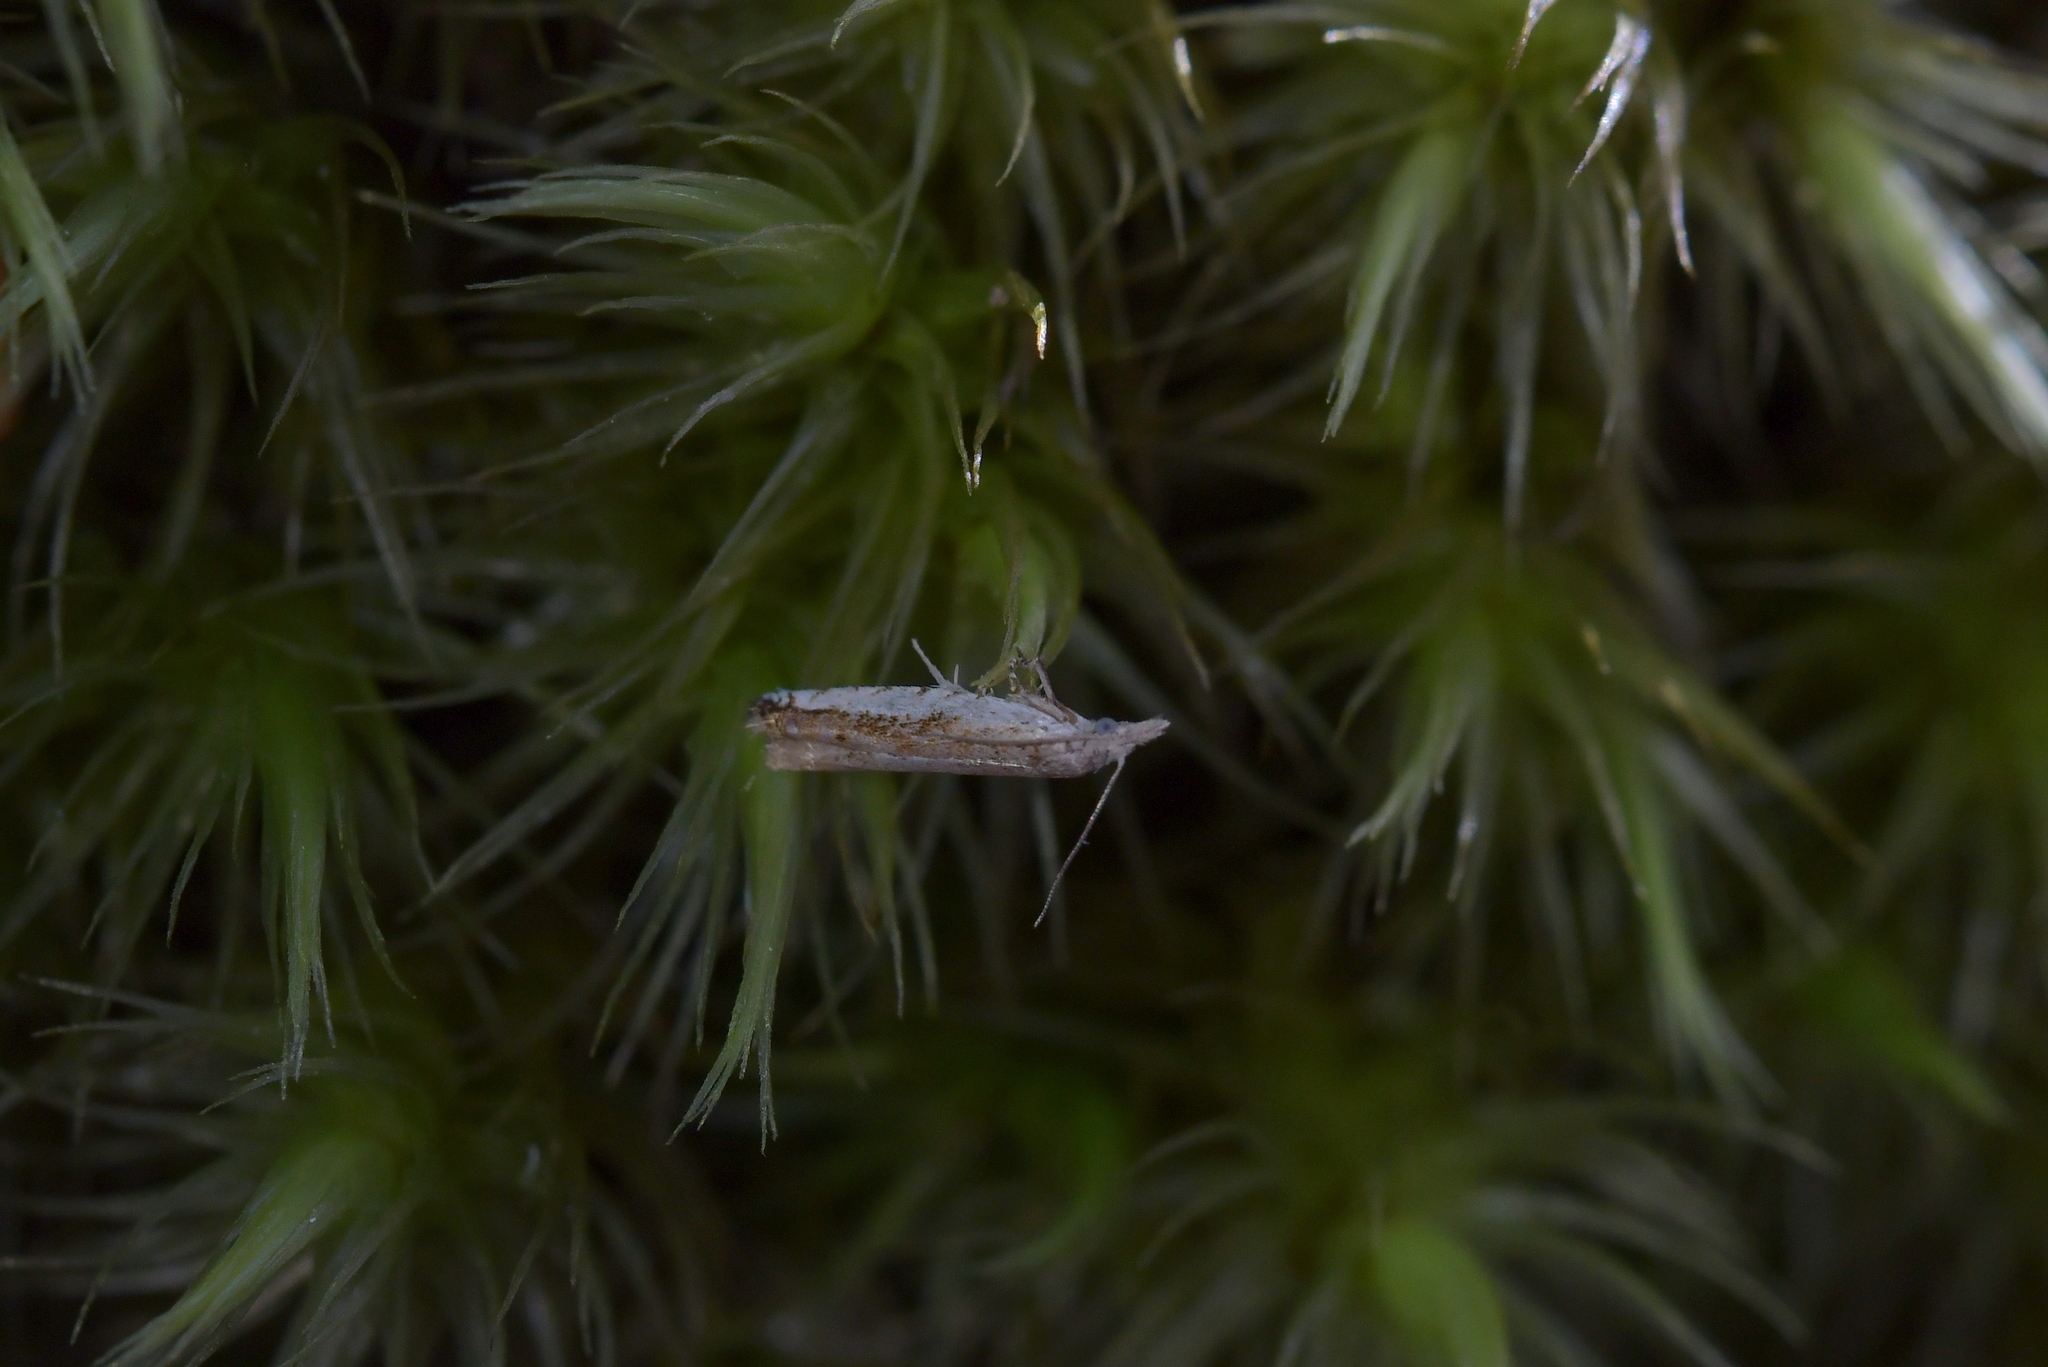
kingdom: Animalia
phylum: Arthropoda
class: Insecta
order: Lepidoptera
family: Tortricidae
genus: Holocola
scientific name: Holocola
